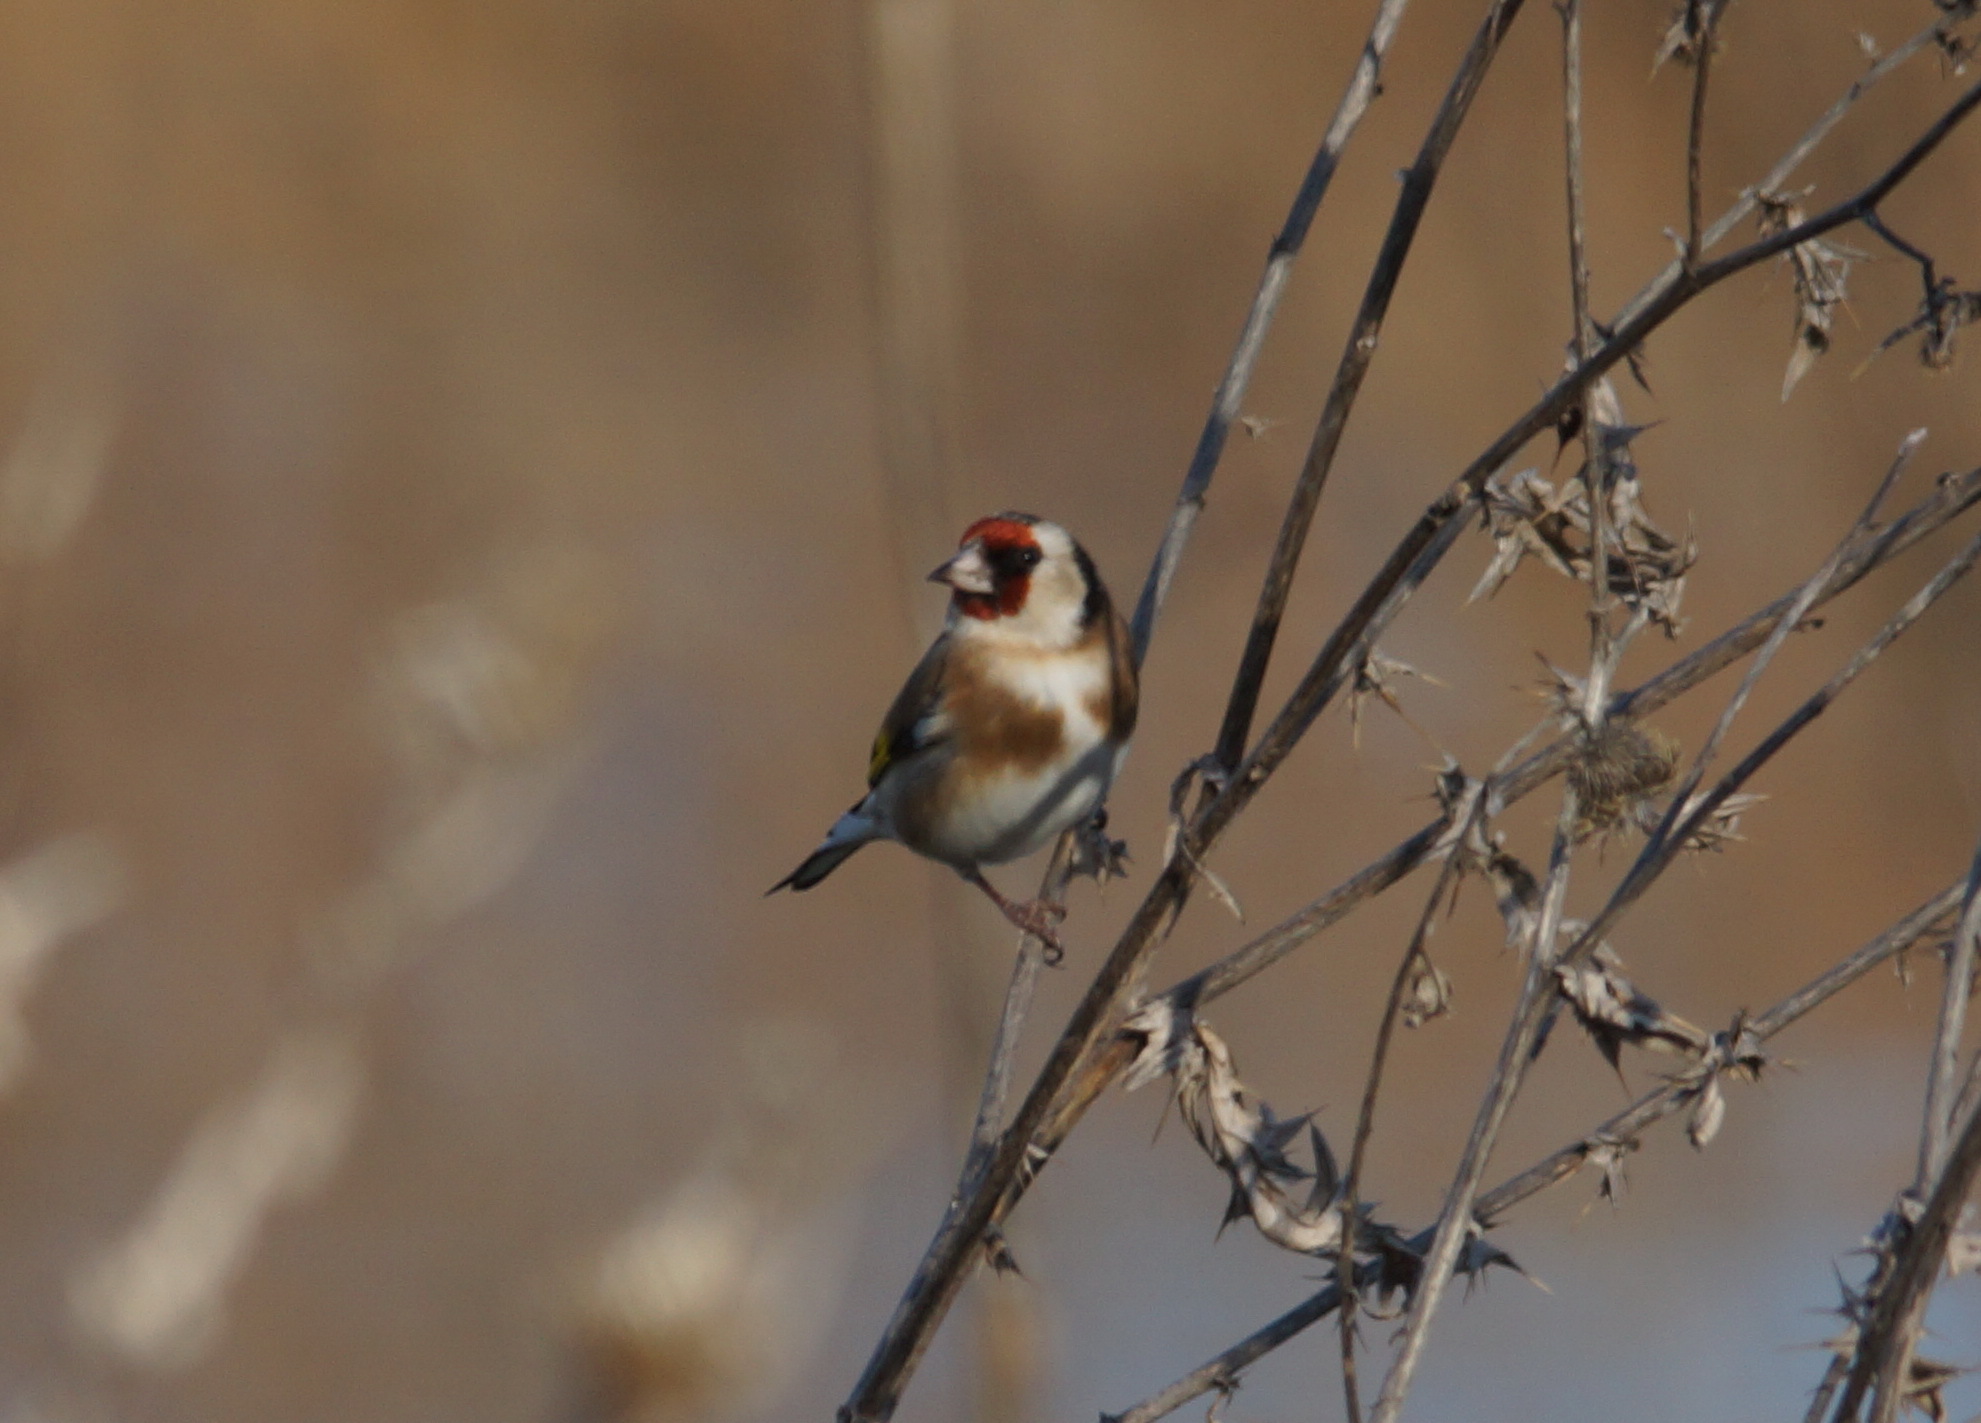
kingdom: Animalia
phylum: Chordata
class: Aves
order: Passeriformes
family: Fringillidae
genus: Carduelis
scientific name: Carduelis carduelis
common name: European goldfinch
